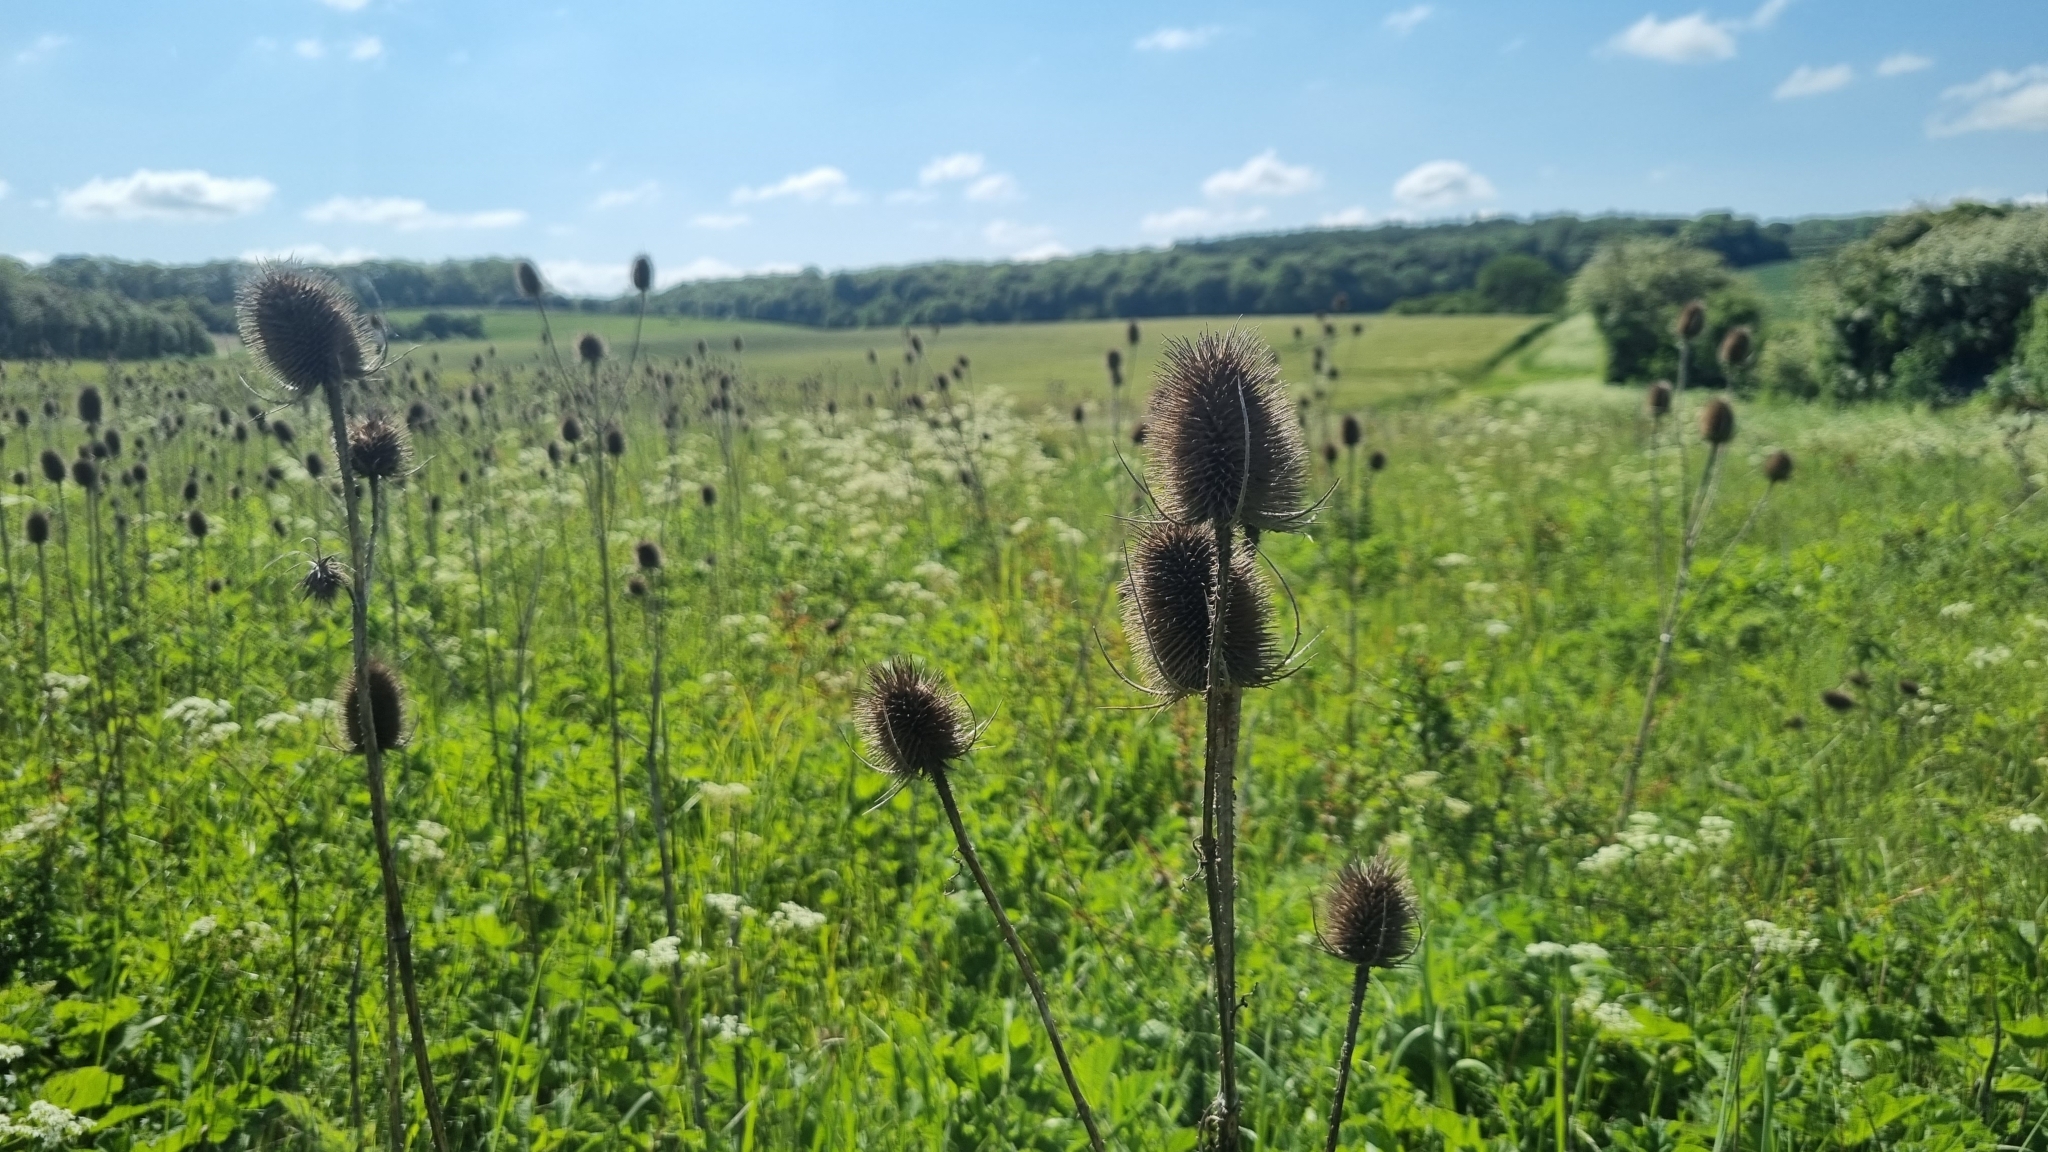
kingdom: Plantae
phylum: Tracheophyta
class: Magnoliopsida
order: Dipsacales
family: Caprifoliaceae
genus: Dipsacus
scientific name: Dipsacus fullonum
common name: Teasel
